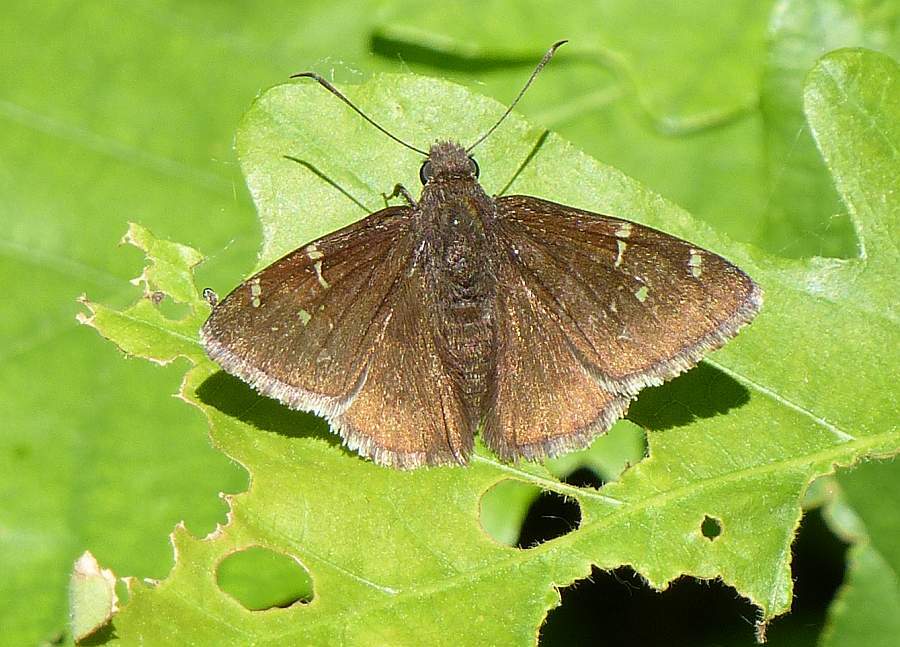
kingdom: Animalia
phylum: Arthropoda
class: Insecta
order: Lepidoptera
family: Hesperiidae
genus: Thorybes
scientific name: Thorybes pylades
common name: Northern cloudywing
